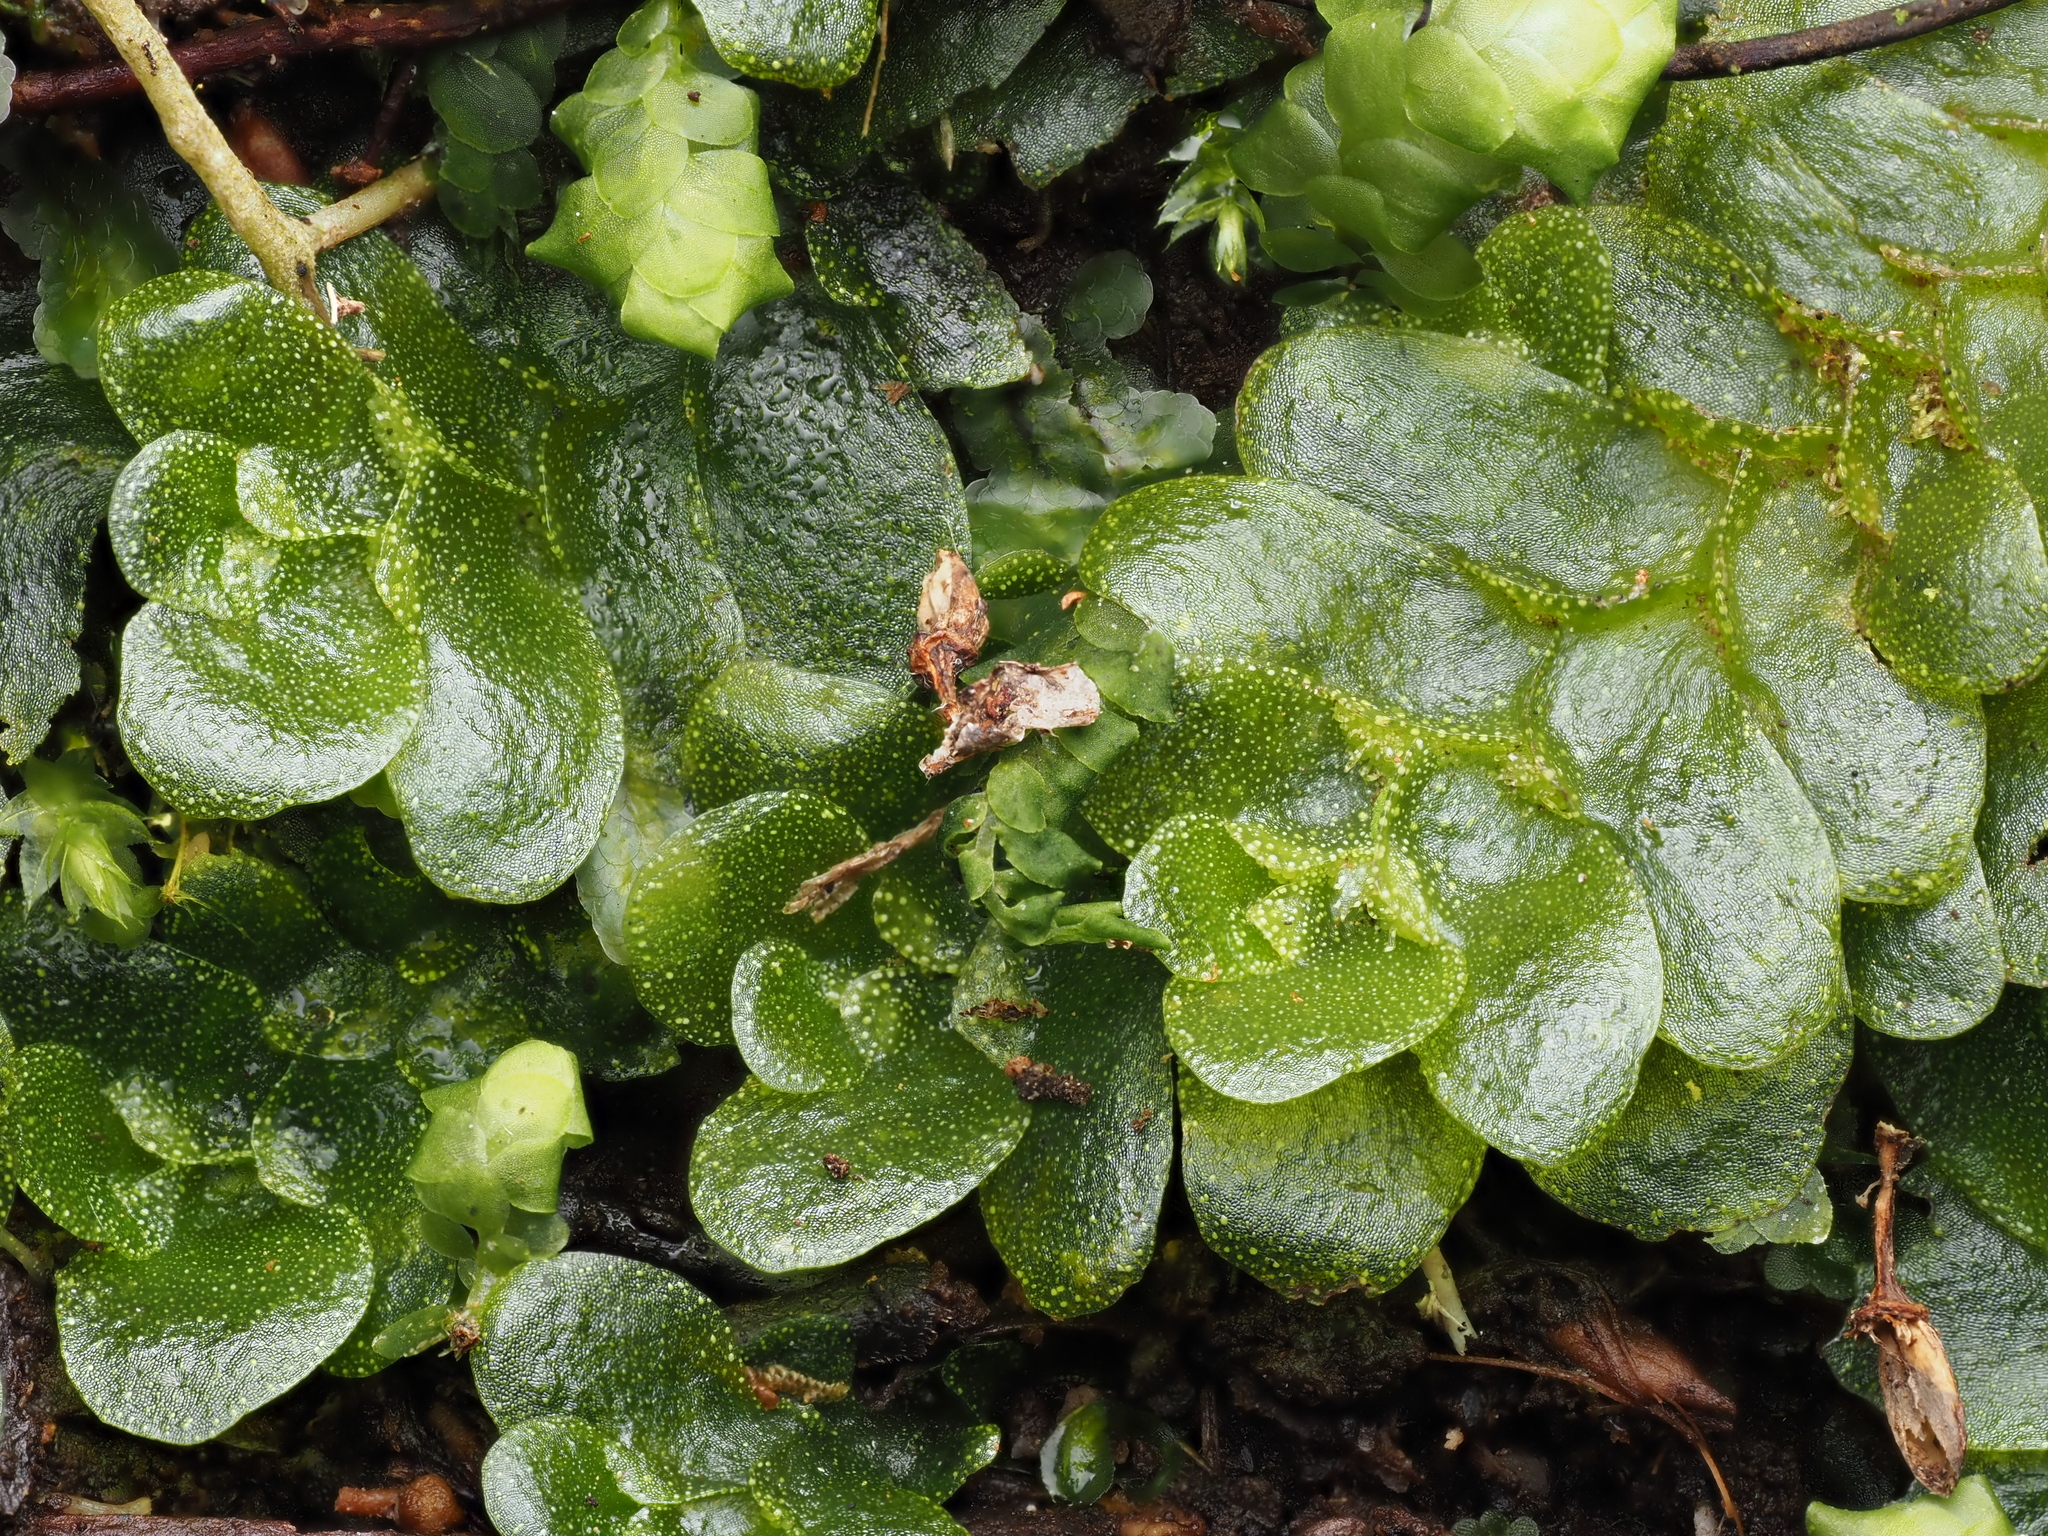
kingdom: Plantae
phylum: Marchantiophyta
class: Haplomitriopsida
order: Treubiales
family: Treubiaceae
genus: Treubia
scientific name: Treubia lacunosa
